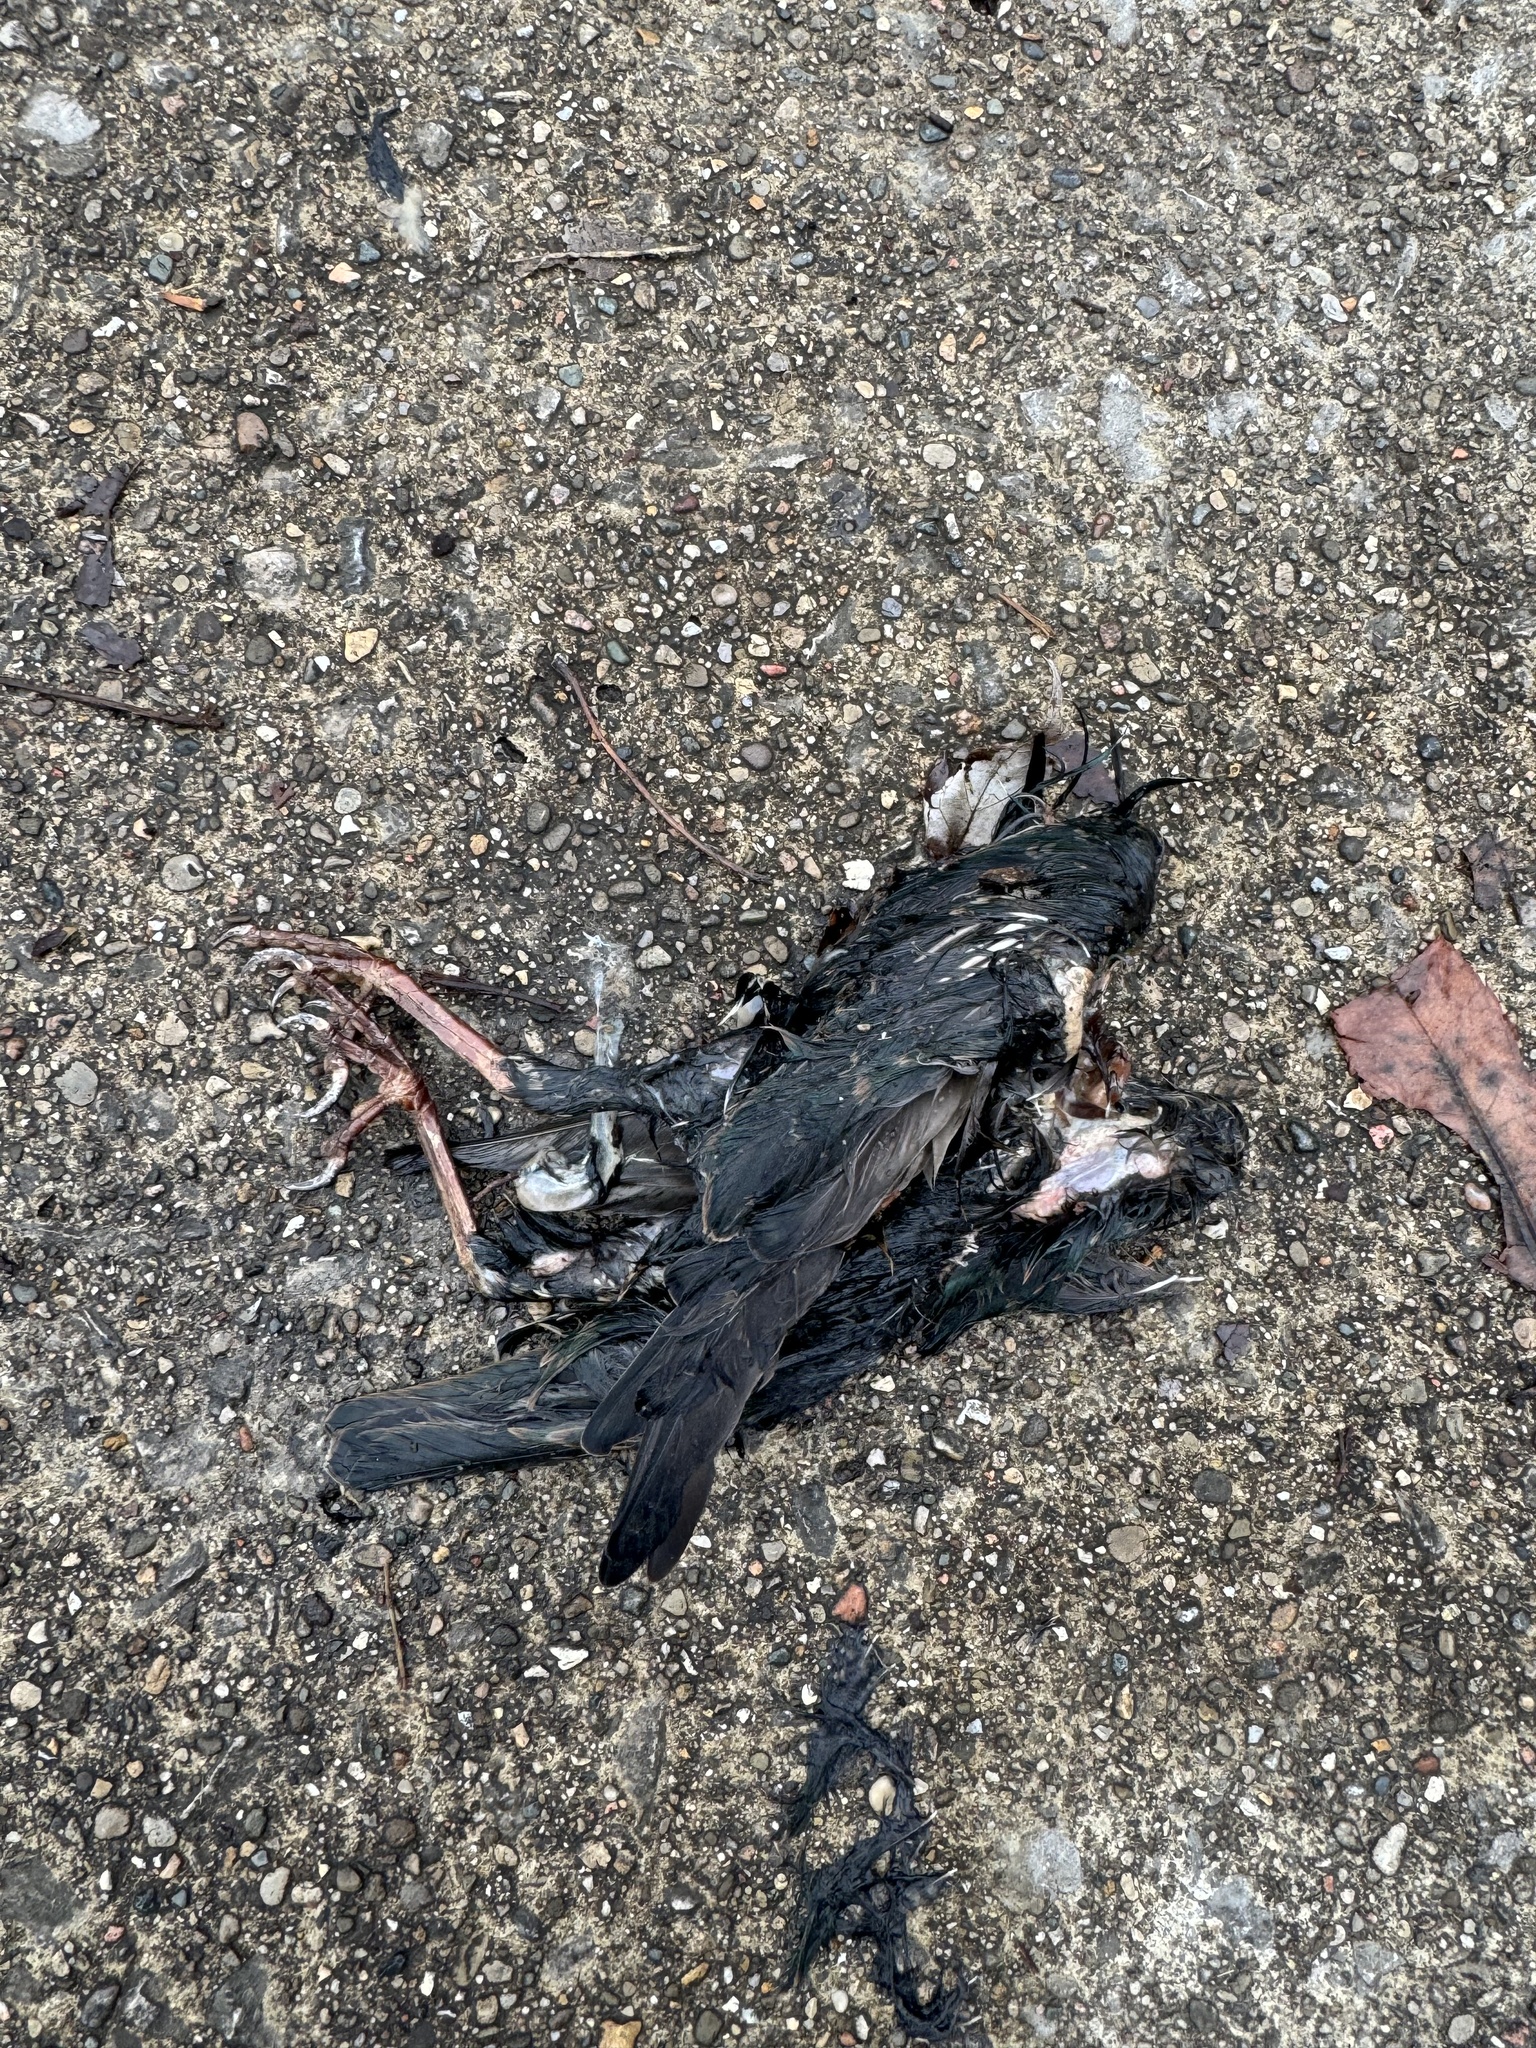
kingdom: Animalia
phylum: Chordata
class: Aves
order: Passeriformes
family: Sturnidae
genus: Sturnus
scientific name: Sturnus vulgaris
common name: Common starling
